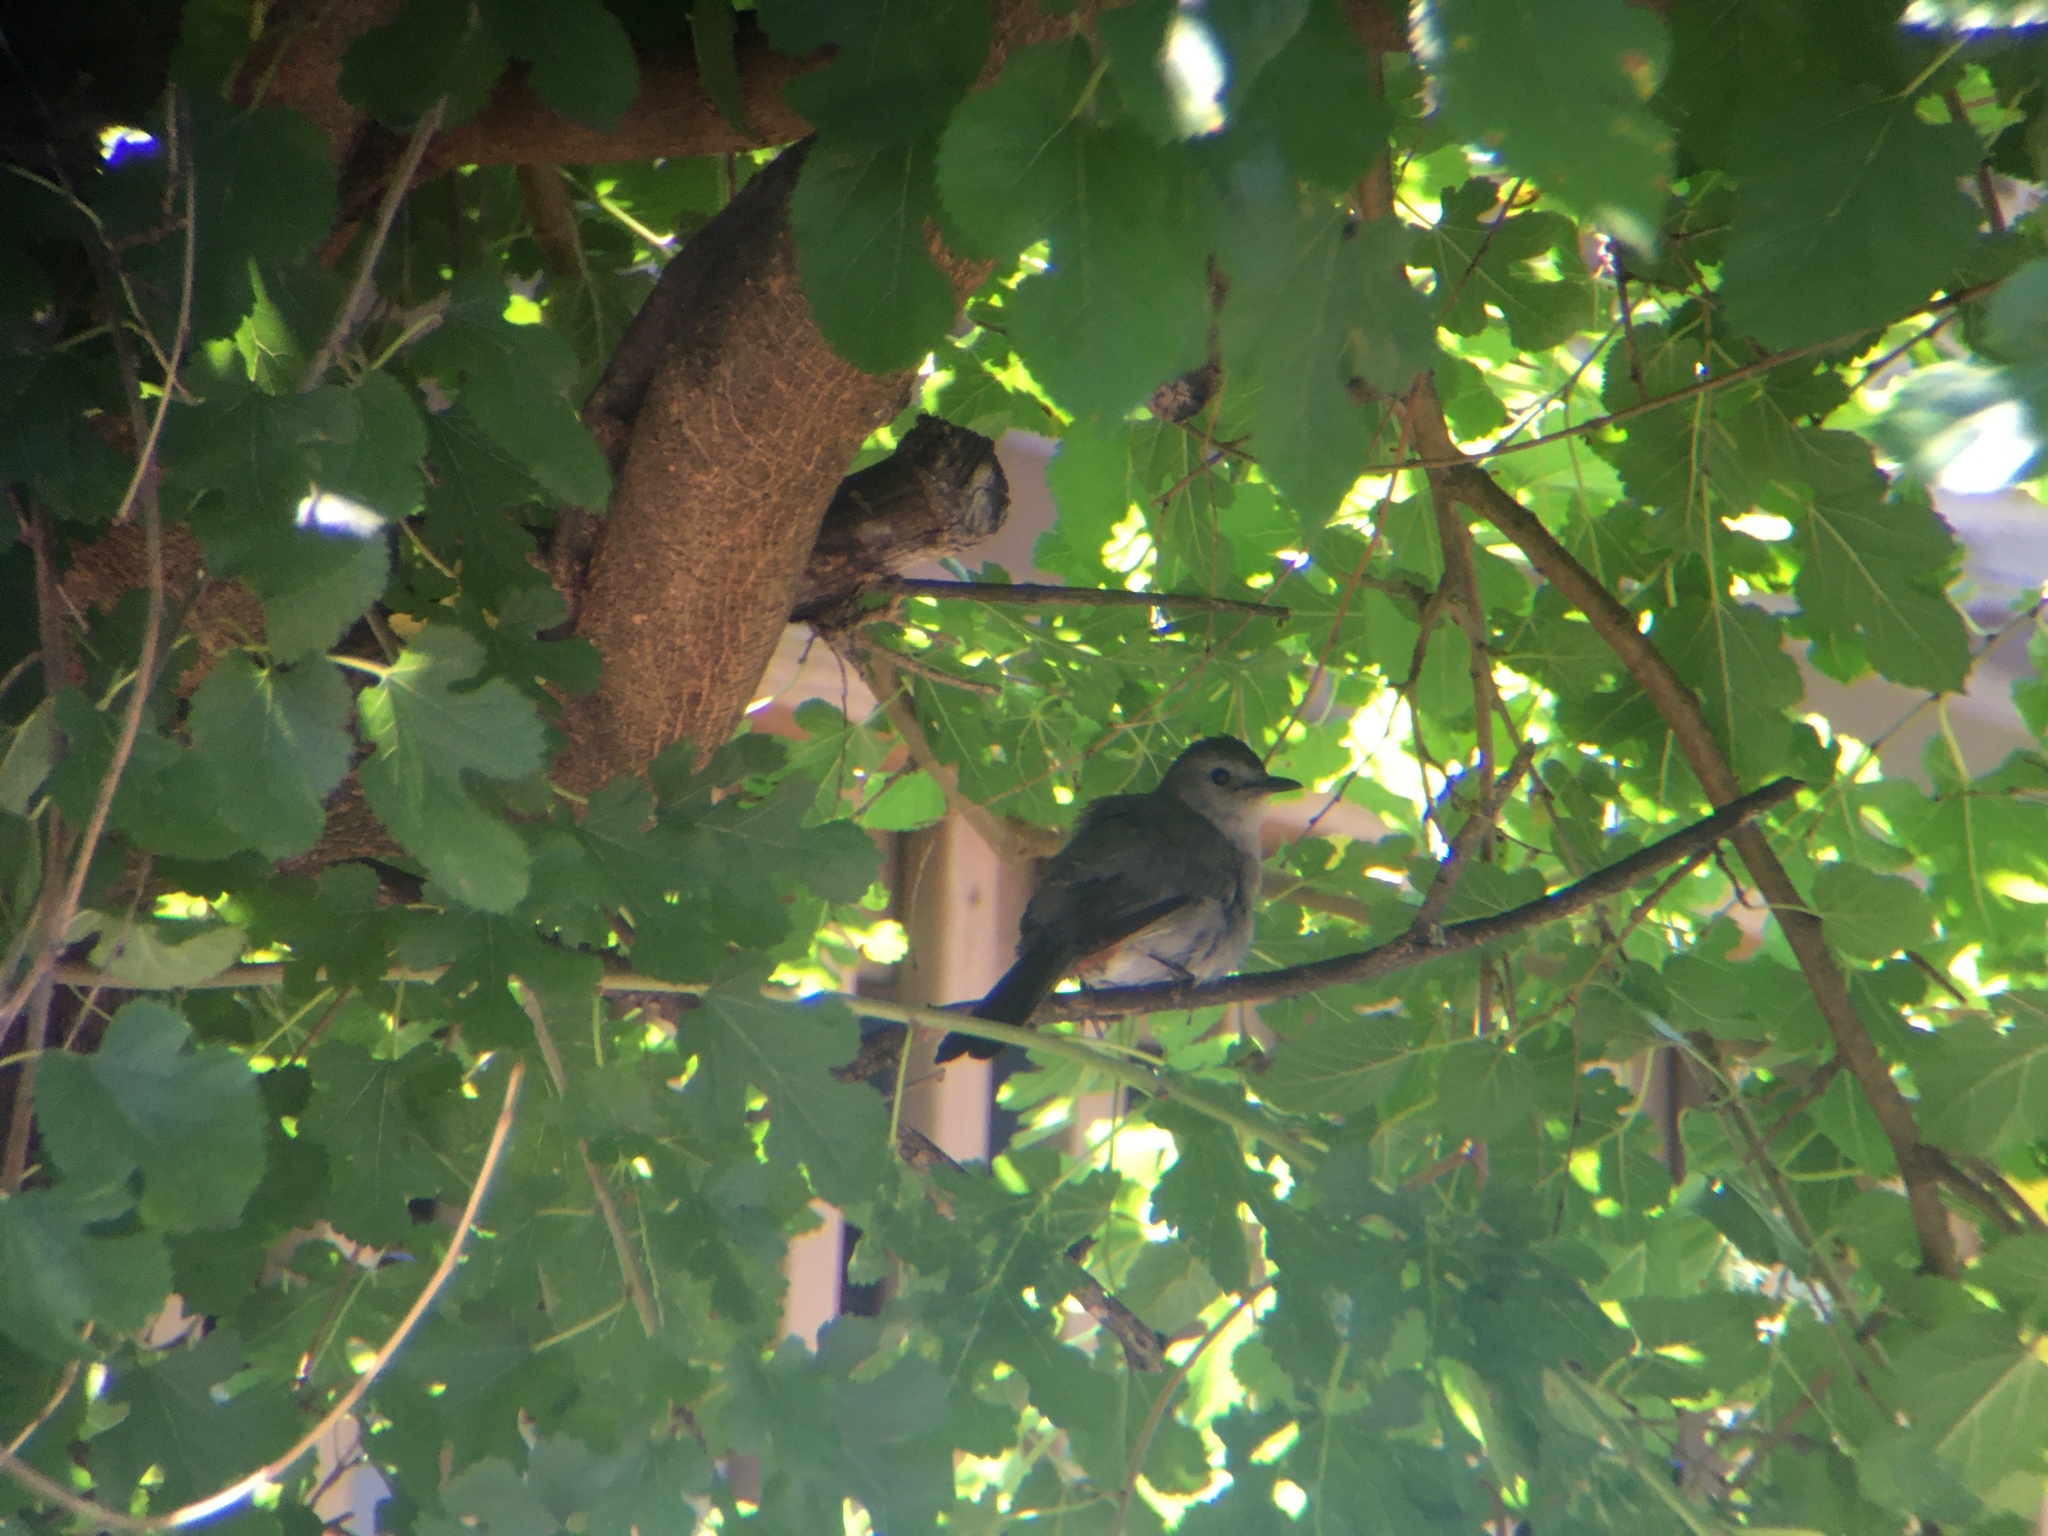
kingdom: Animalia
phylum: Chordata
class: Aves
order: Passeriformes
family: Mimidae
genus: Dumetella
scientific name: Dumetella carolinensis
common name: Gray catbird
